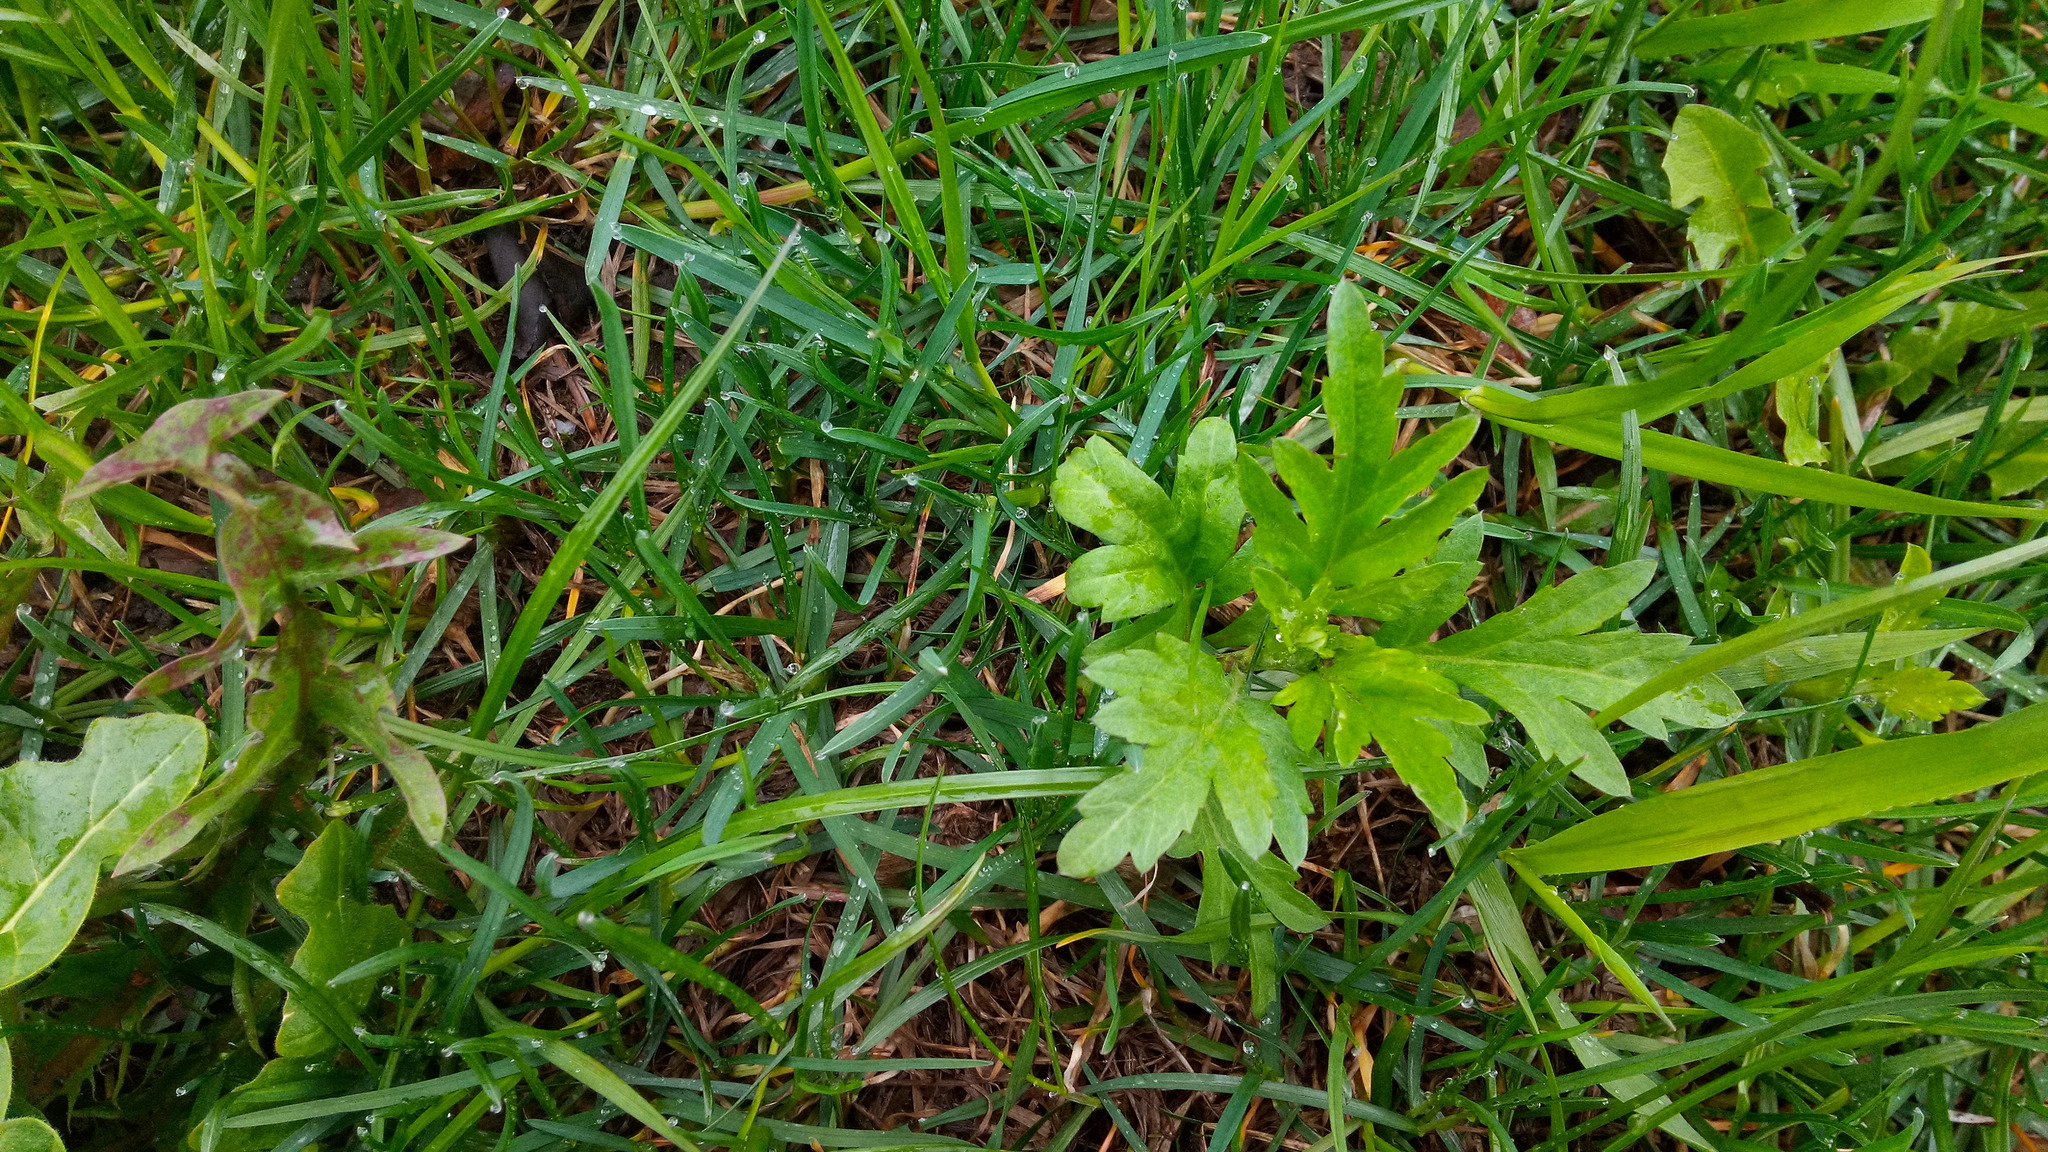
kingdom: Plantae
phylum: Tracheophyta
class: Magnoliopsida
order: Asterales
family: Asteraceae
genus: Artemisia
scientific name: Artemisia vulgaris
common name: Mugwort
